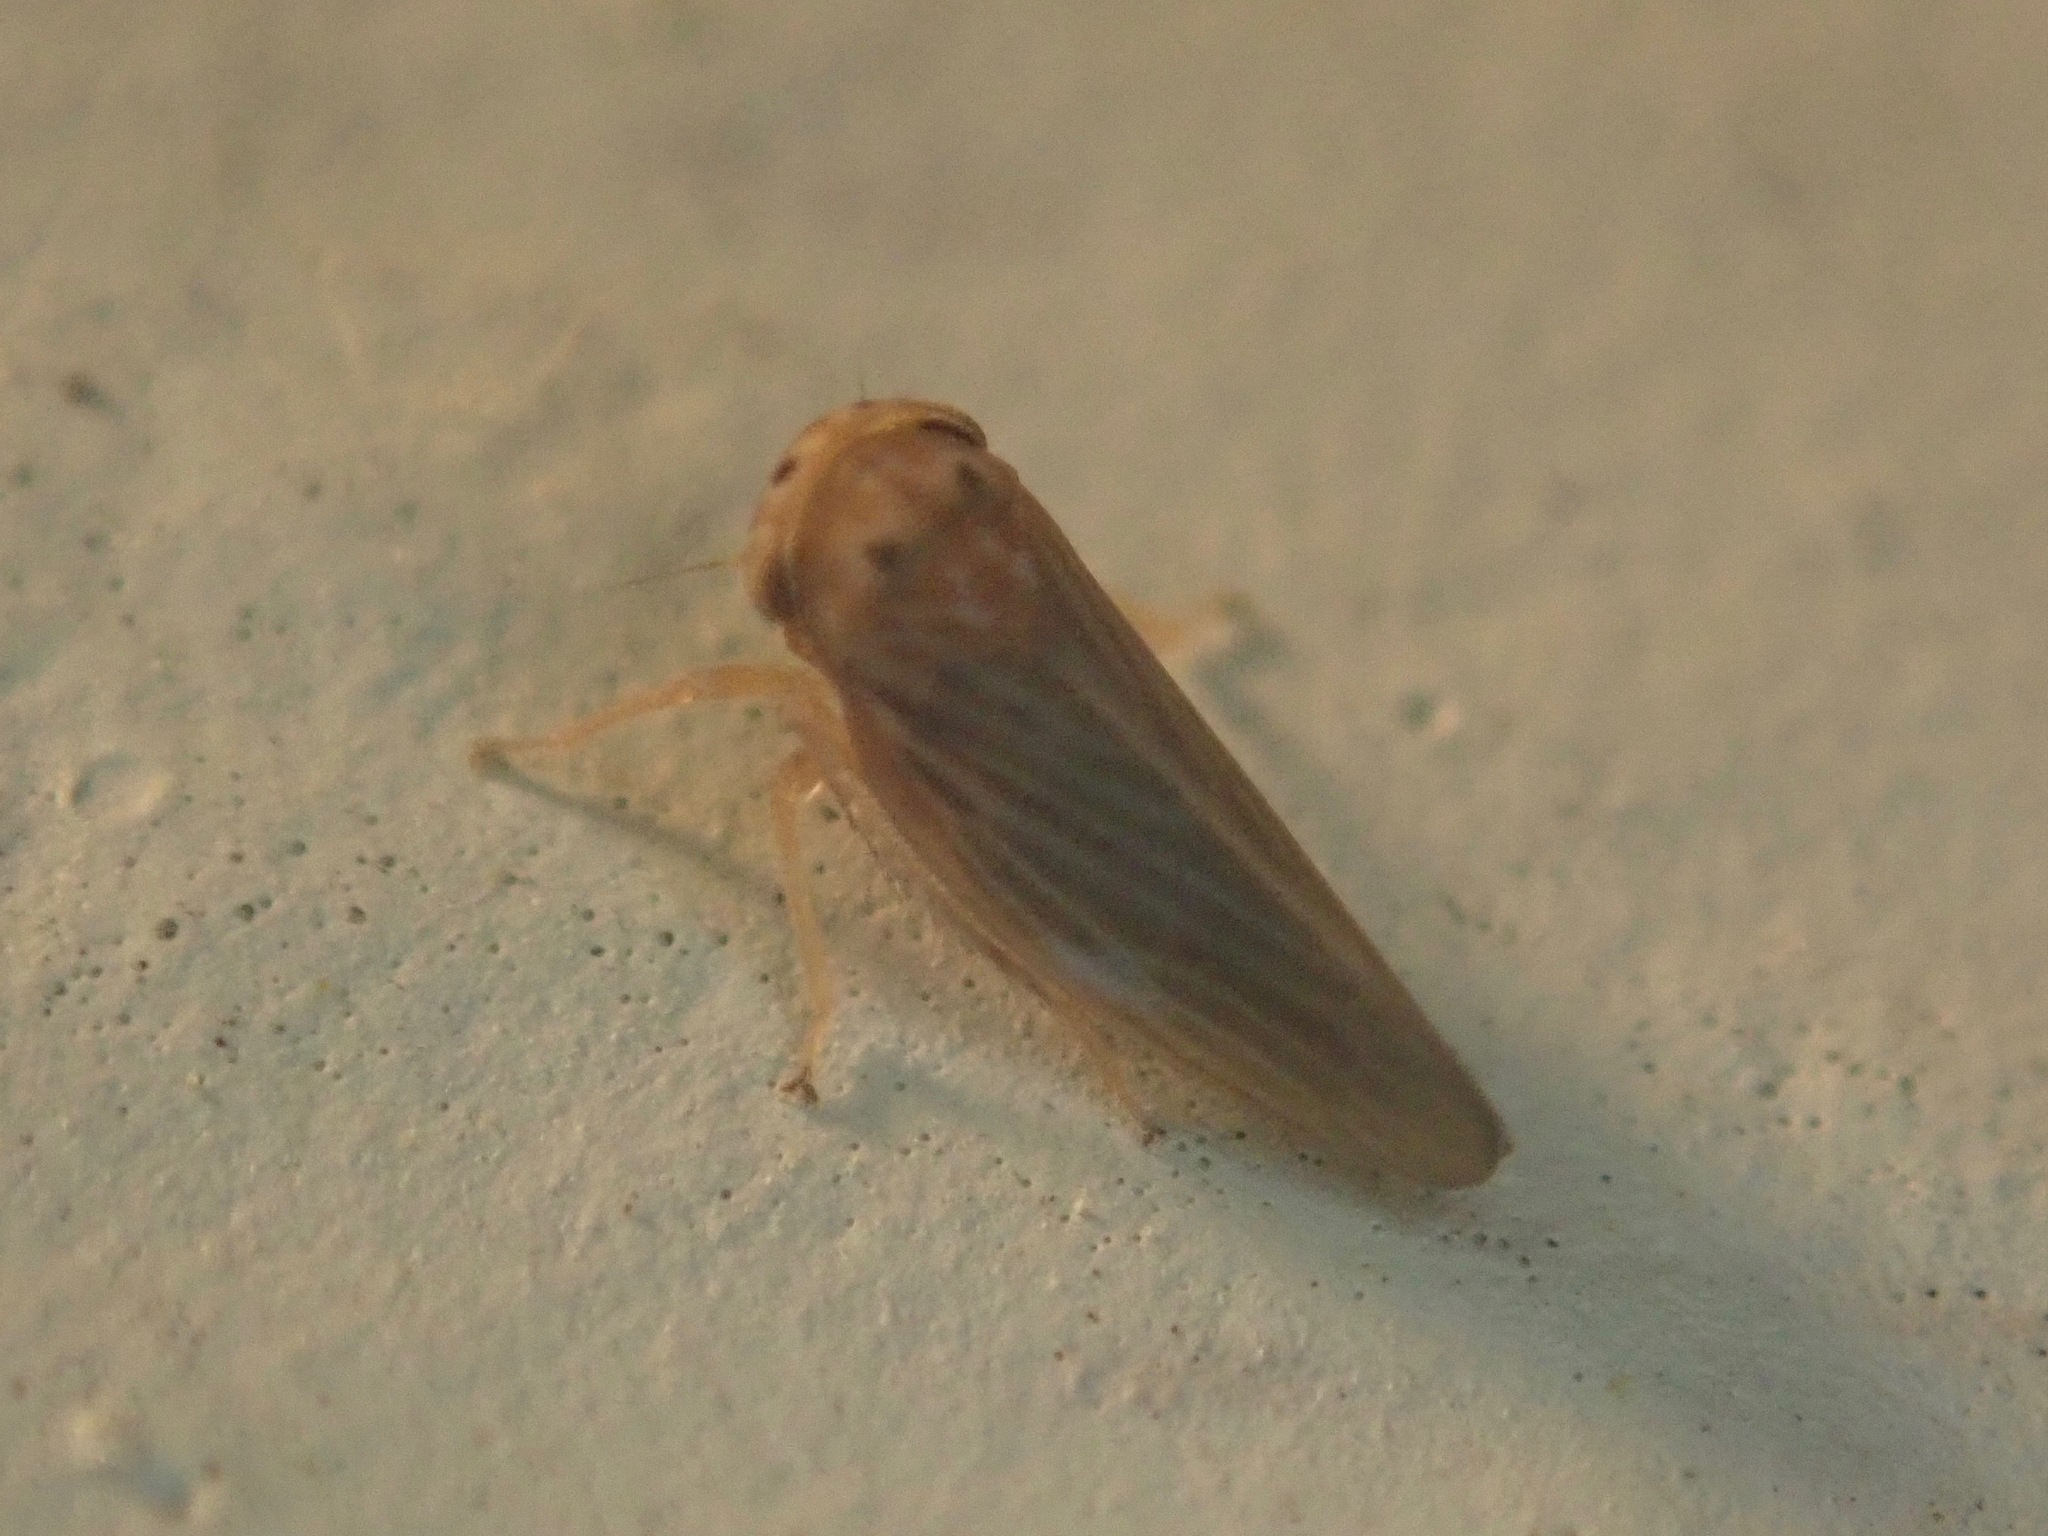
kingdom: Animalia
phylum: Arthropoda
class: Insecta
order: Hemiptera
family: Cicadellidae
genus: Agallia
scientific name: Agallia constricta
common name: The constricted leafhopper
